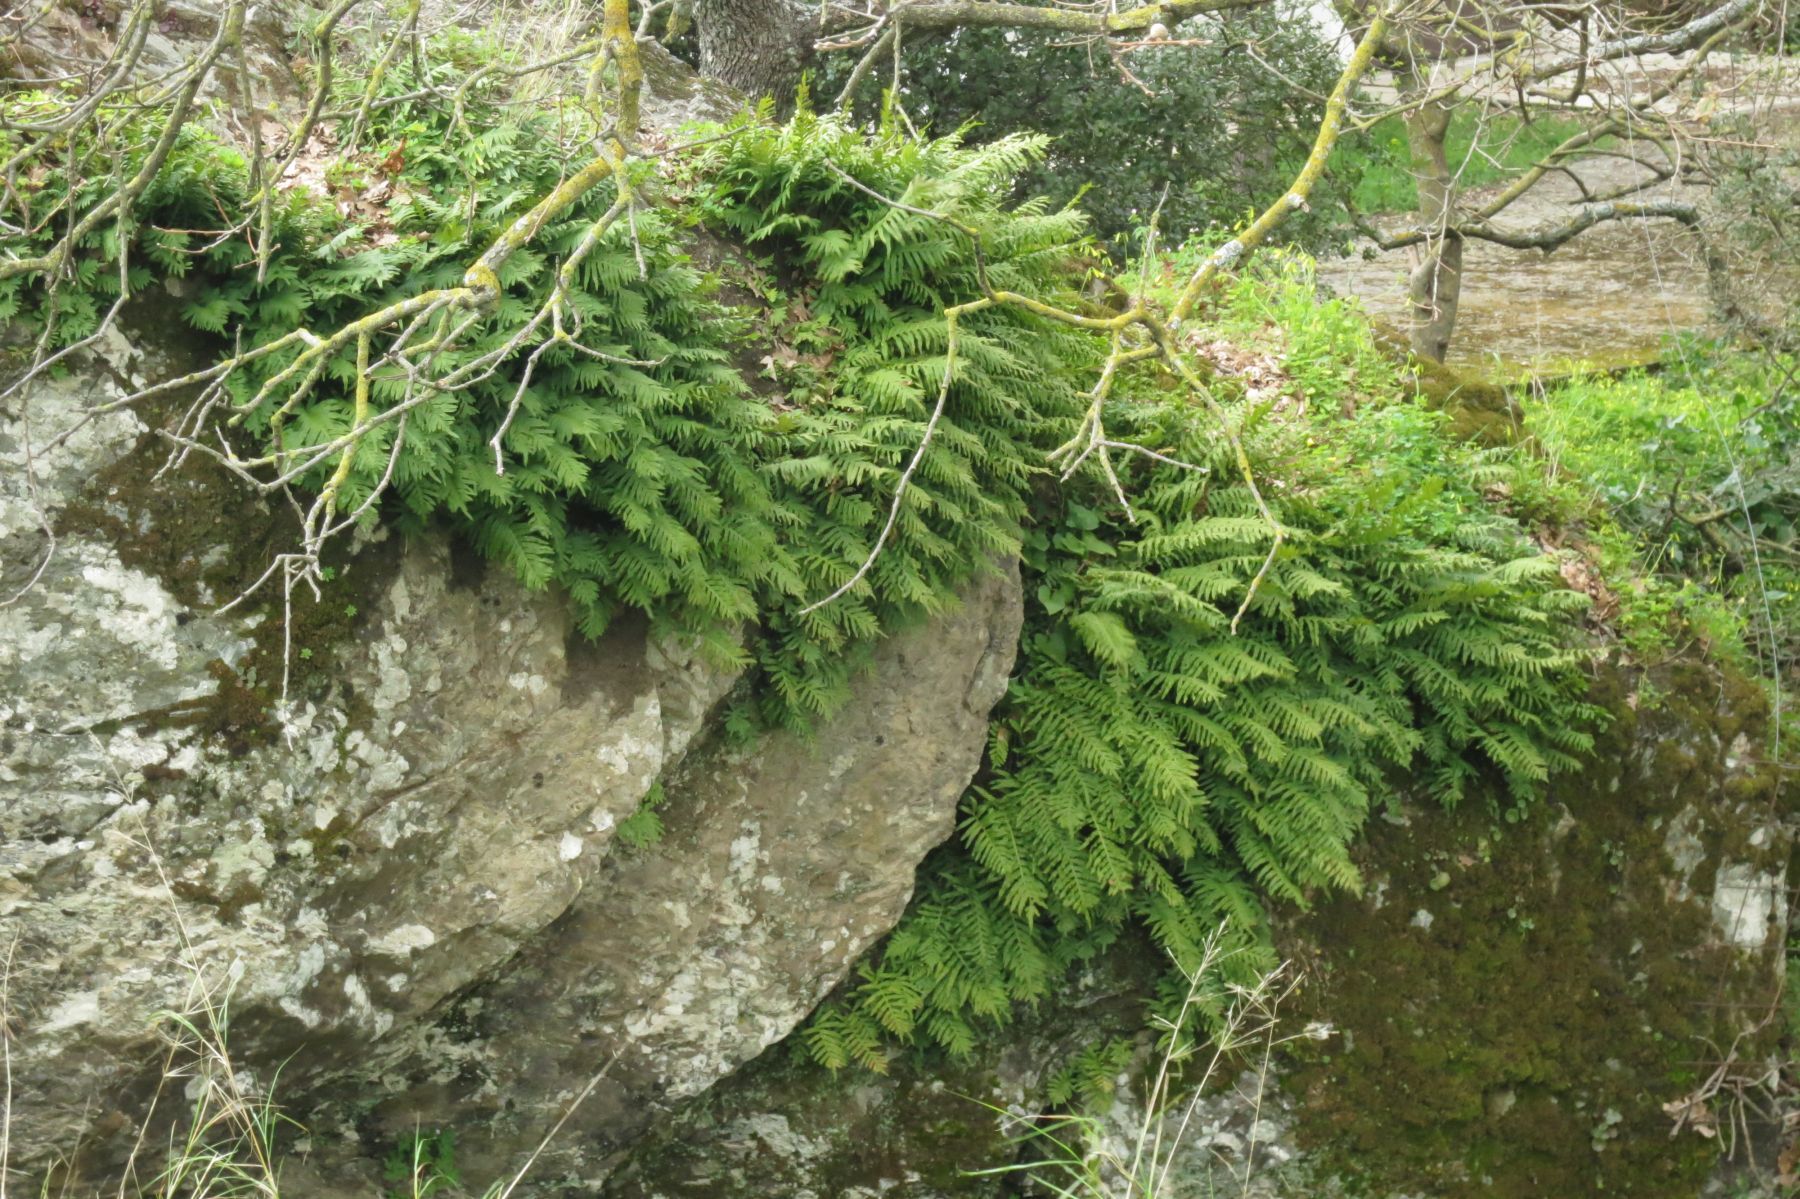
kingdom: Plantae
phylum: Tracheophyta
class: Polypodiopsida
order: Polypodiales
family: Polypodiaceae
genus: Polypodium
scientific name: Polypodium cambricum
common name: Southern polypody
